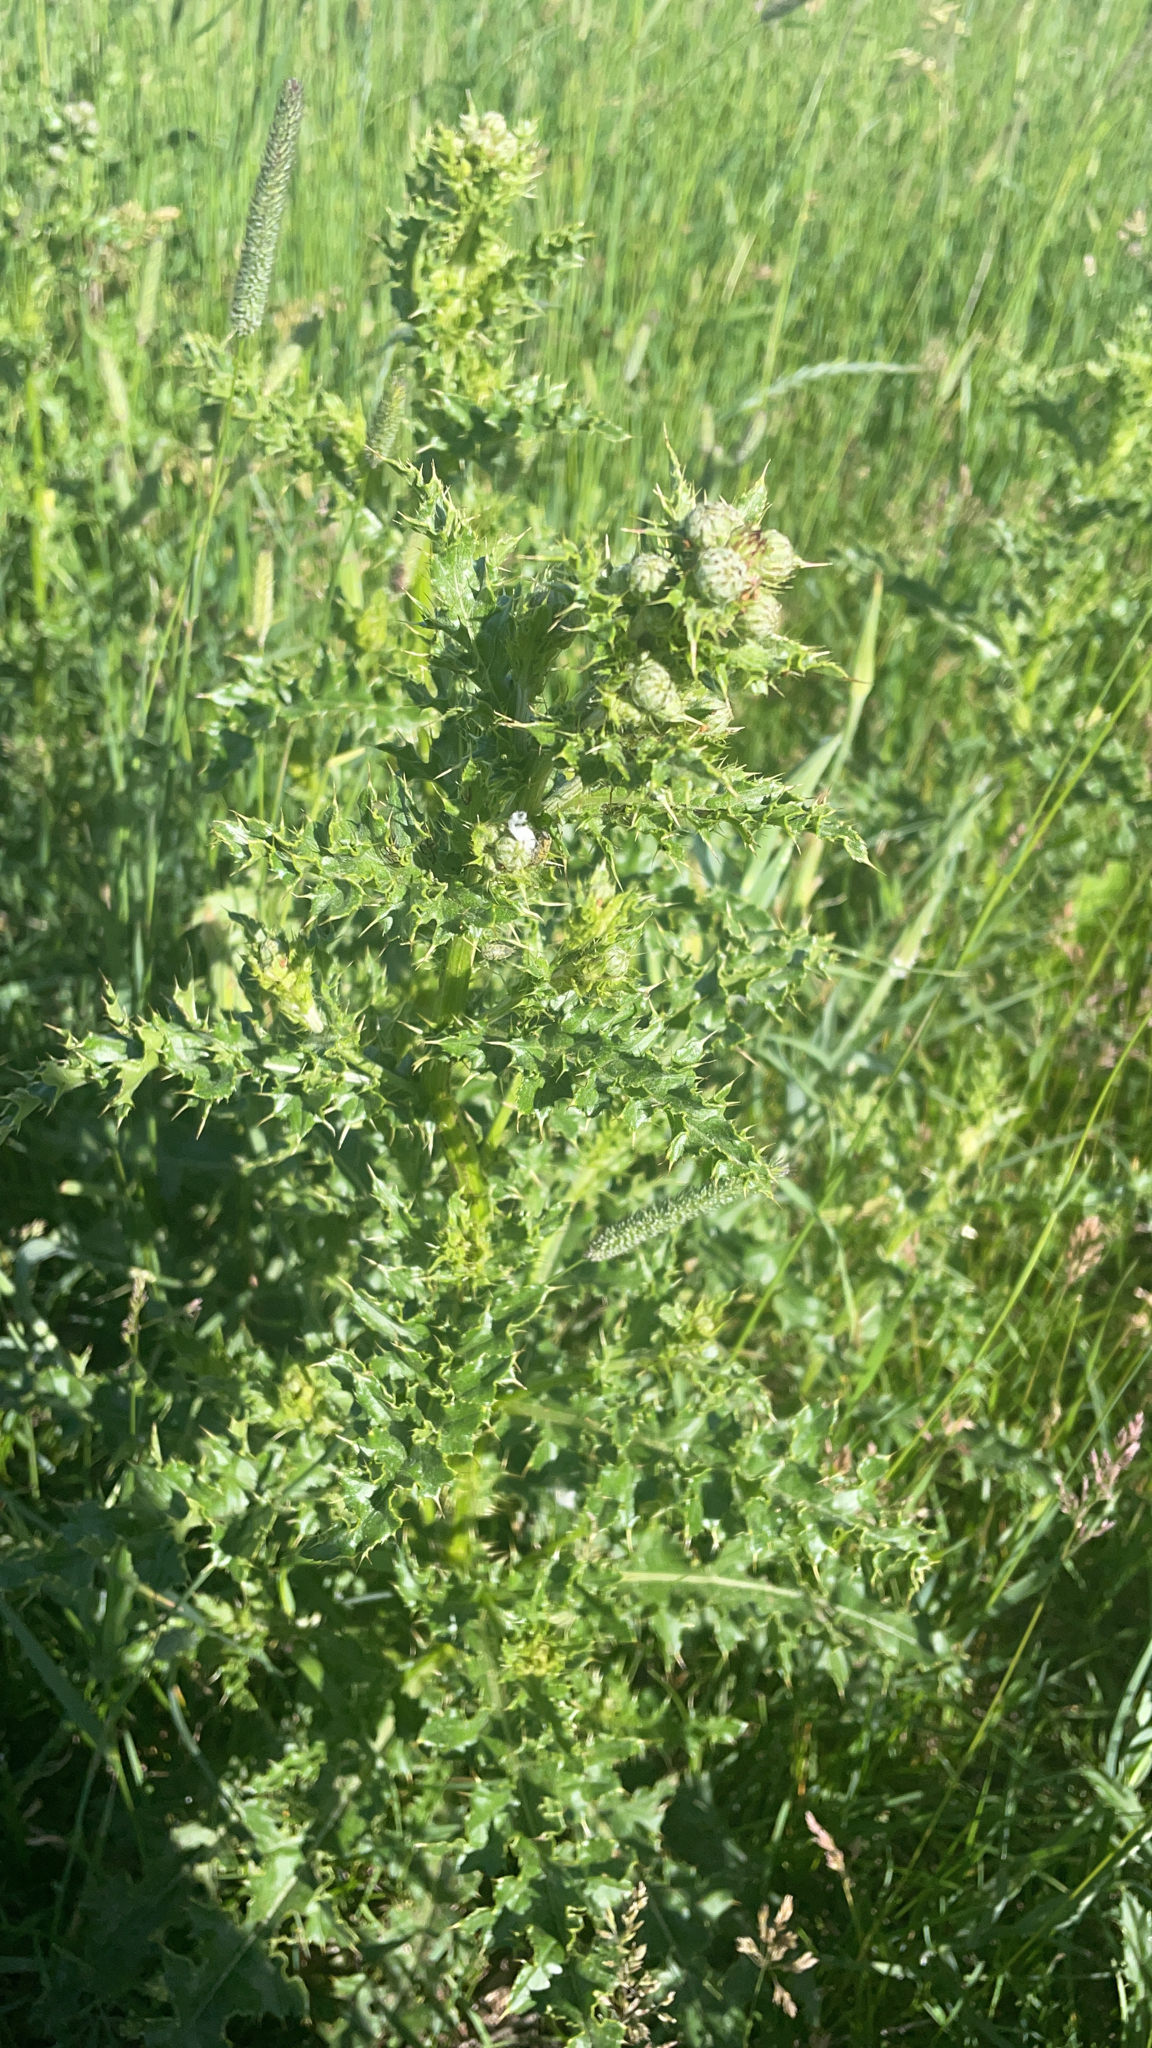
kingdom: Plantae
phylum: Tracheophyta
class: Magnoliopsida
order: Asterales
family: Asteraceae
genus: Cirsium
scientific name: Cirsium arvense
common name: Creeping thistle
